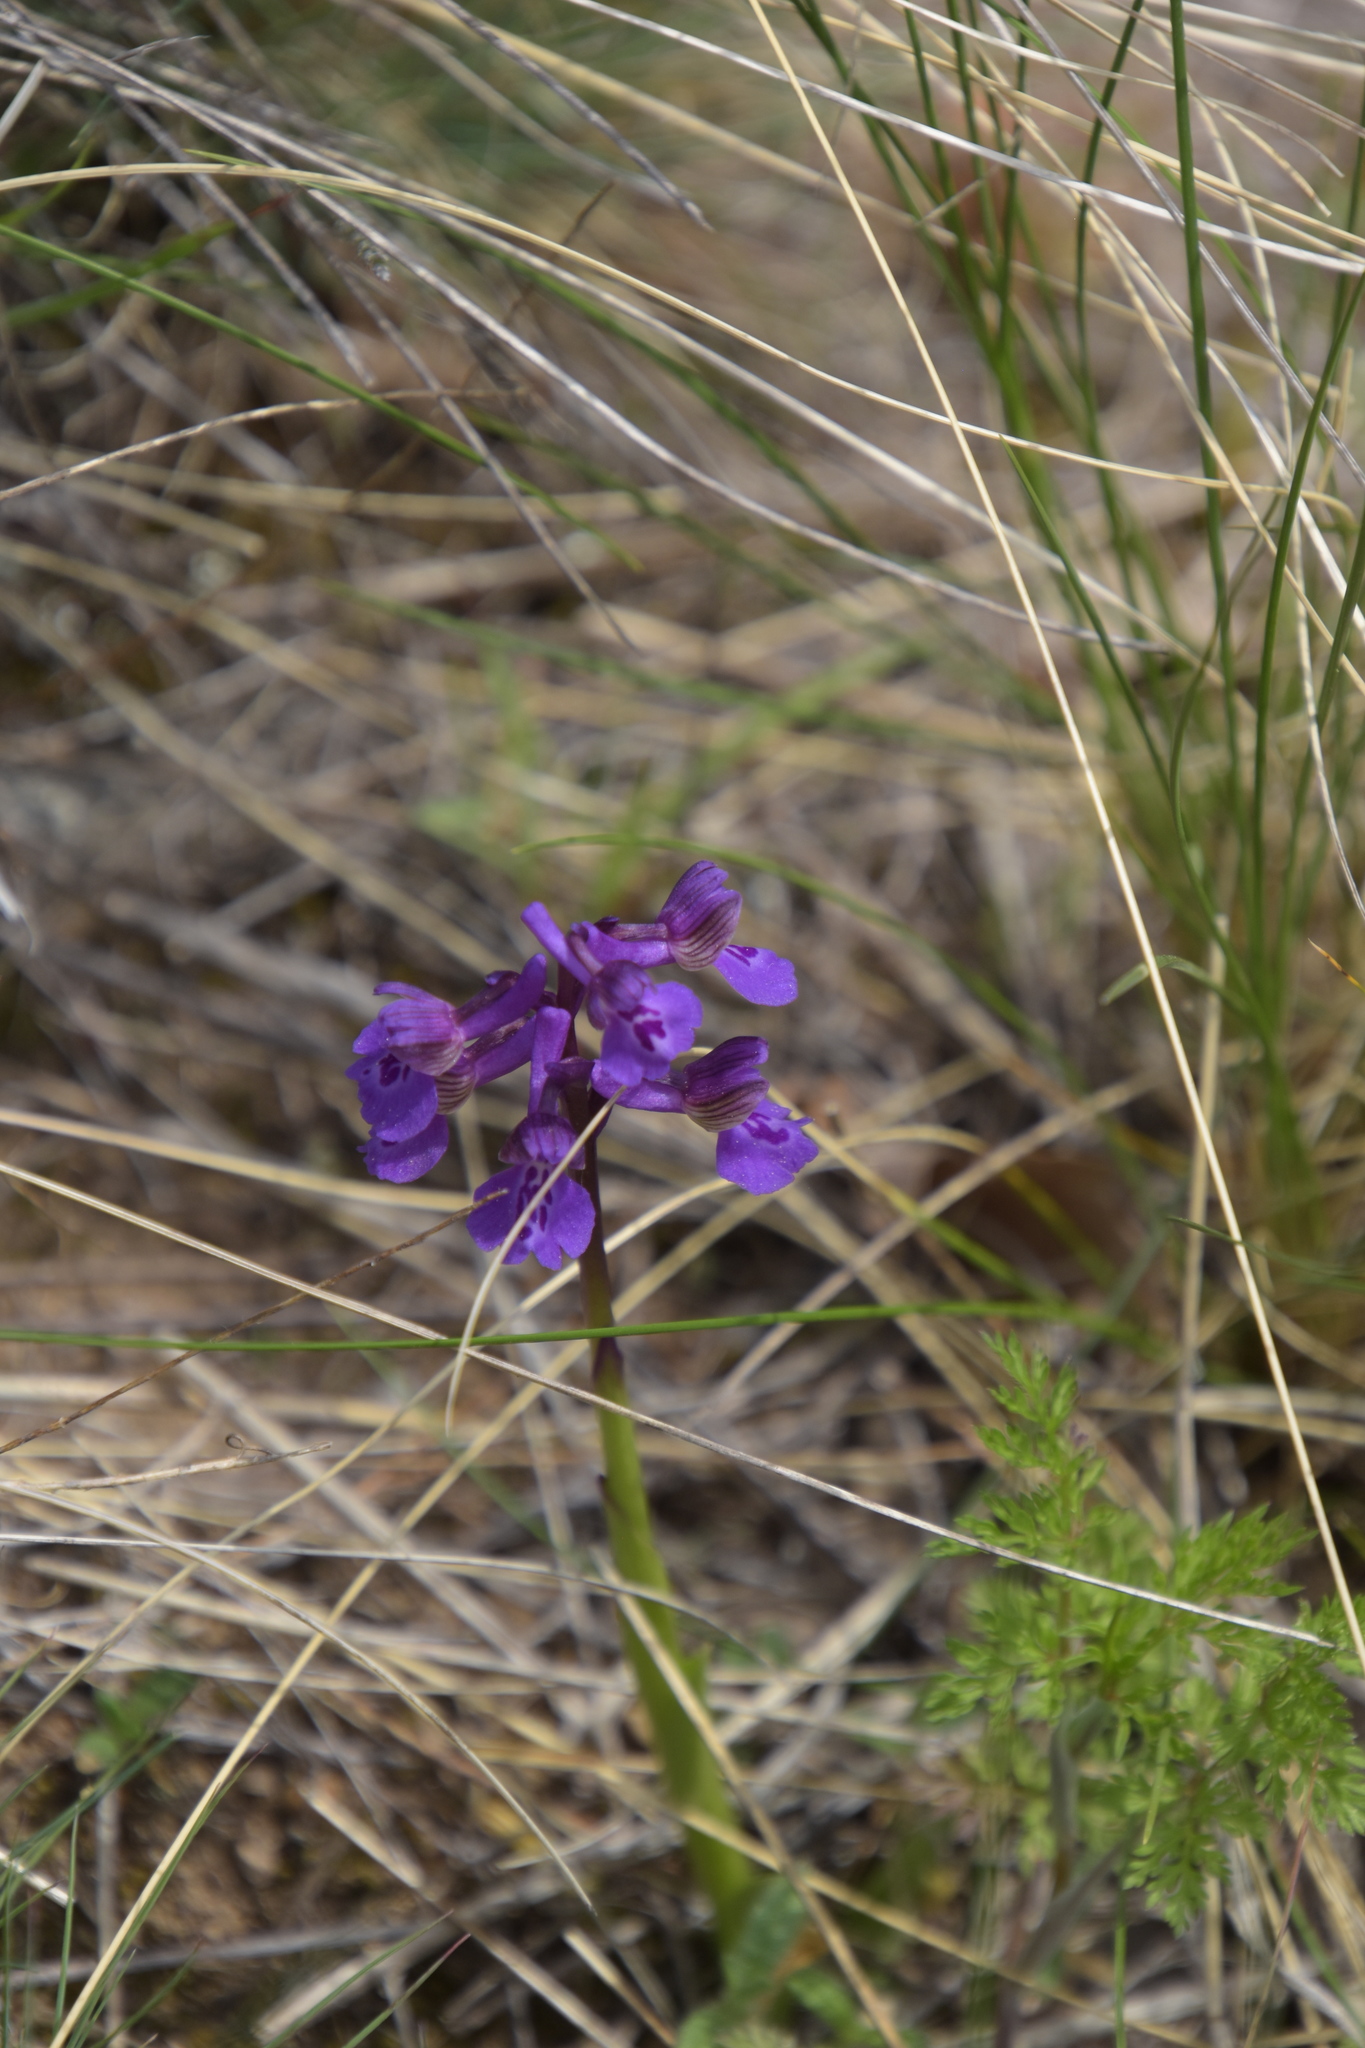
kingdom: Plantae
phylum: Tracheophyta
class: Liliopsida
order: Asparagales
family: Orchidaceae
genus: Anacamptis
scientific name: Anacamptis morio
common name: Green-winged orchid
